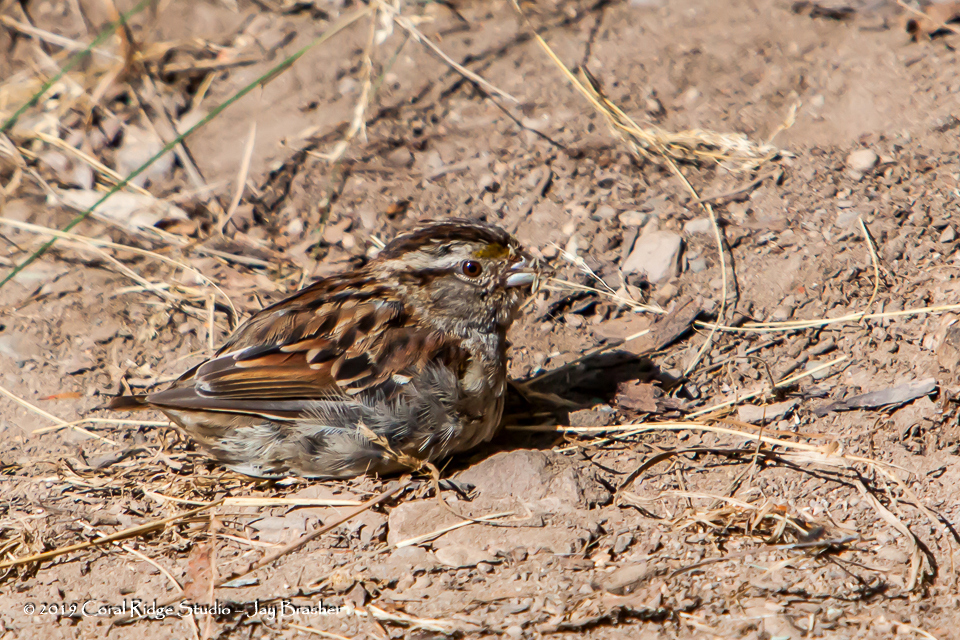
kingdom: Animalia
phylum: Chordata
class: Aves
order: Passeriformes
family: Passerellidae
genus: Zonotrichia
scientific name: Zonotrichia albicollis
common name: White-throated sparrow
